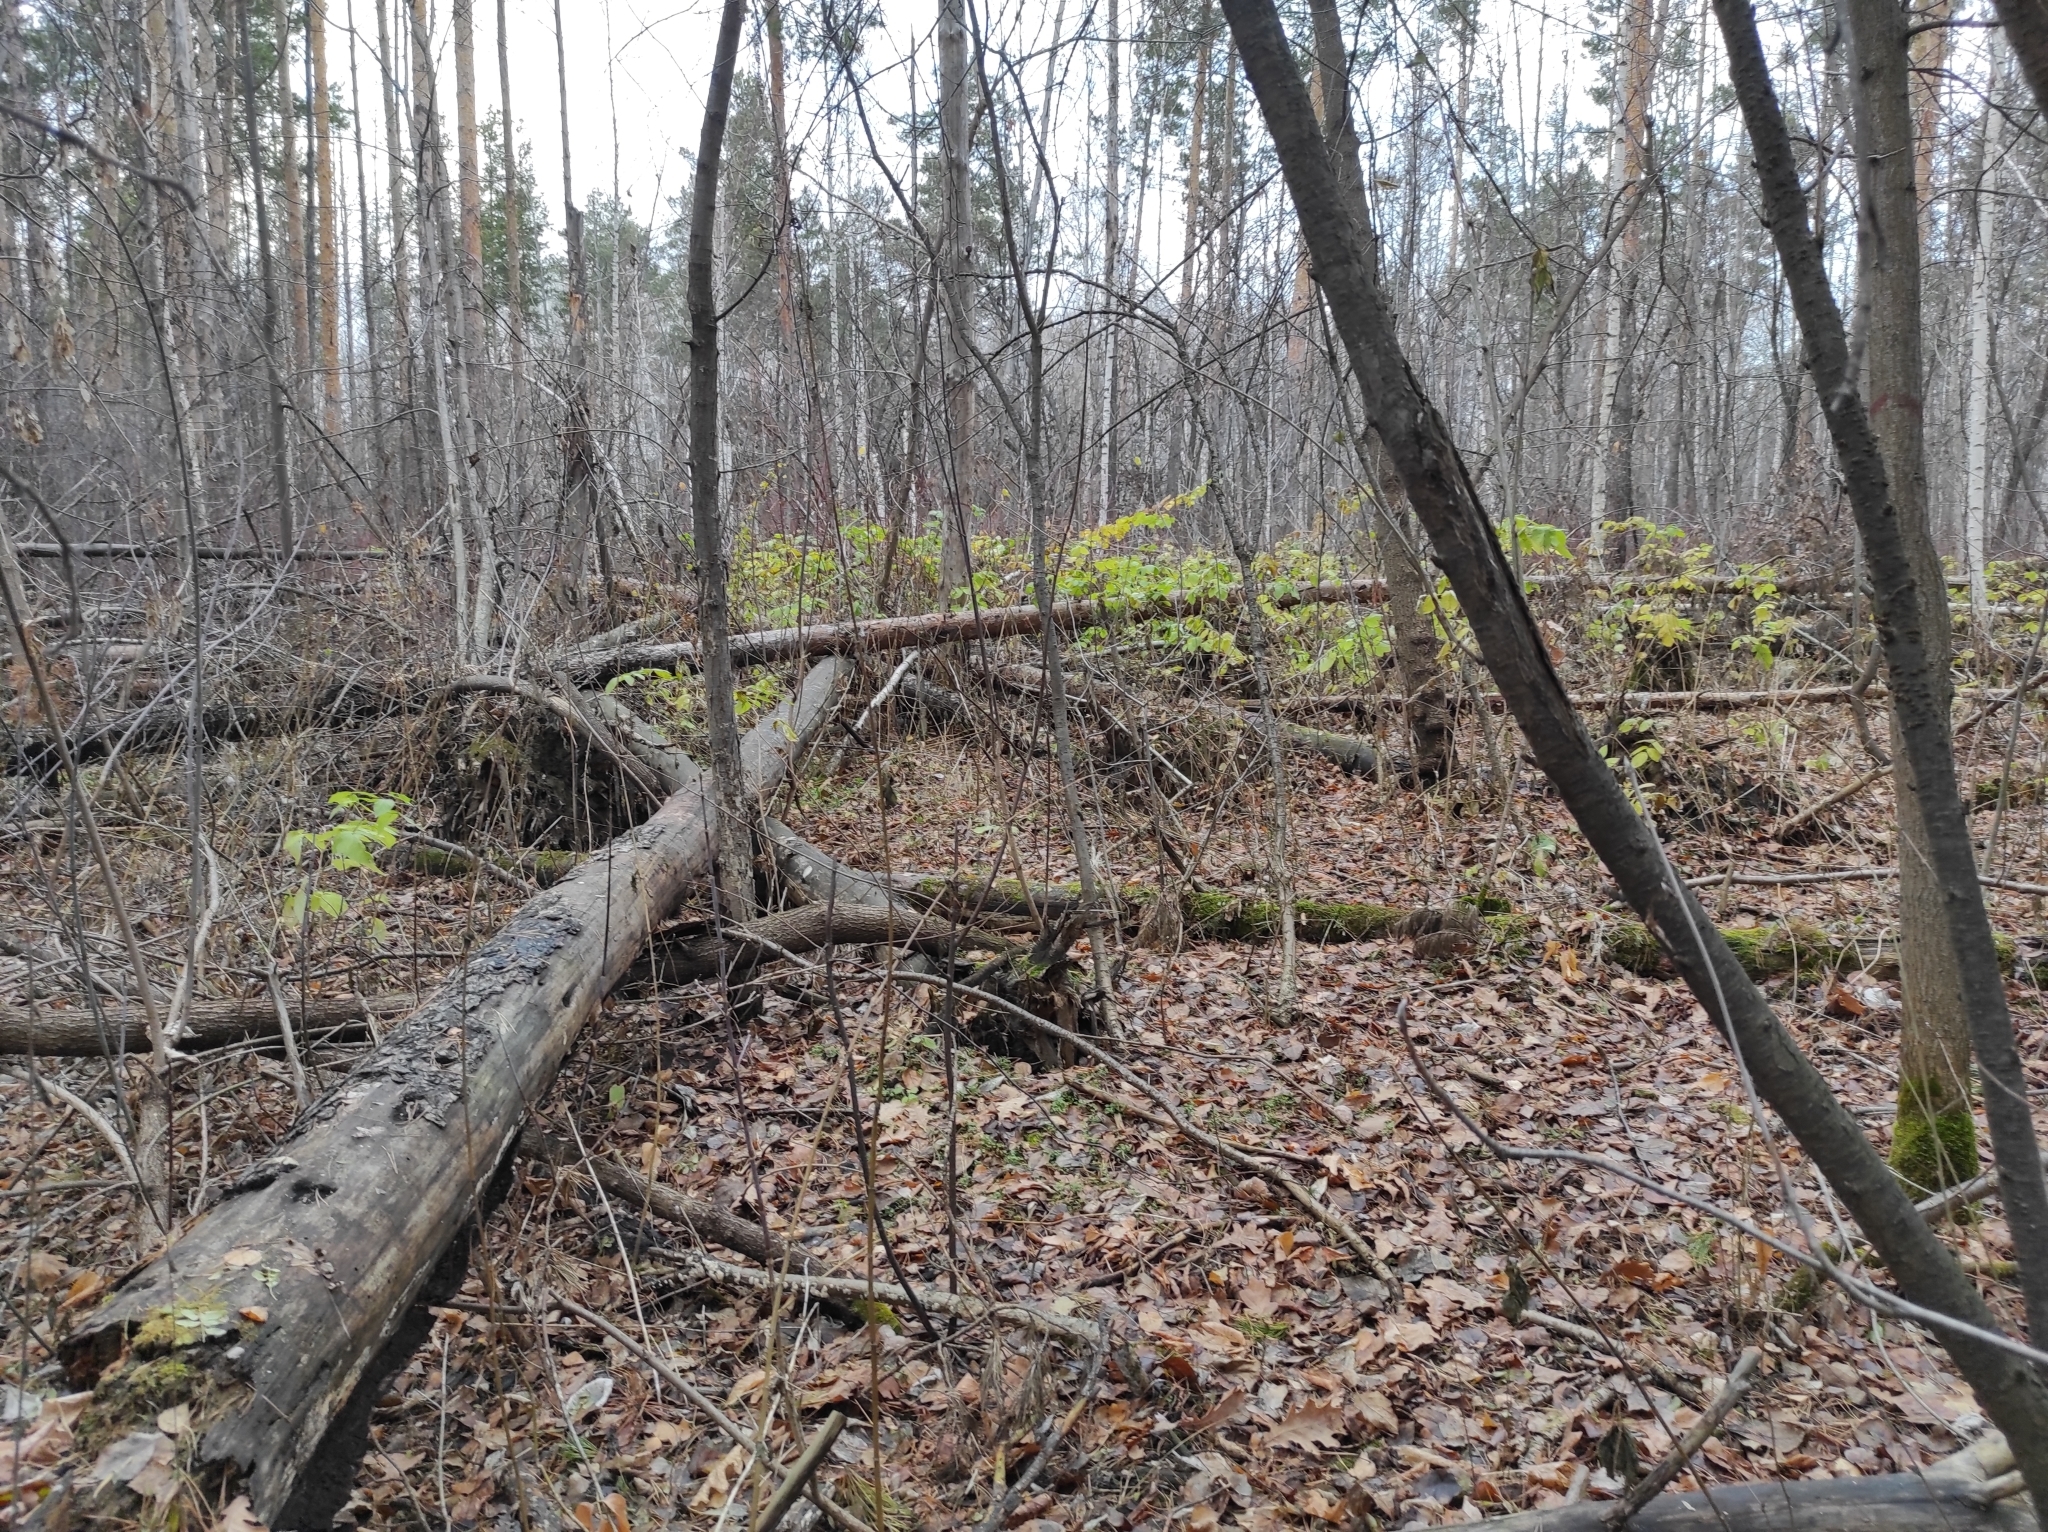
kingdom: Plantae
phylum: Tracheophyta
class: Magnoliopsida
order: Rosales
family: Rosaceae
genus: Rubus
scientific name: Rubus idaeus
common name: Raspberry
